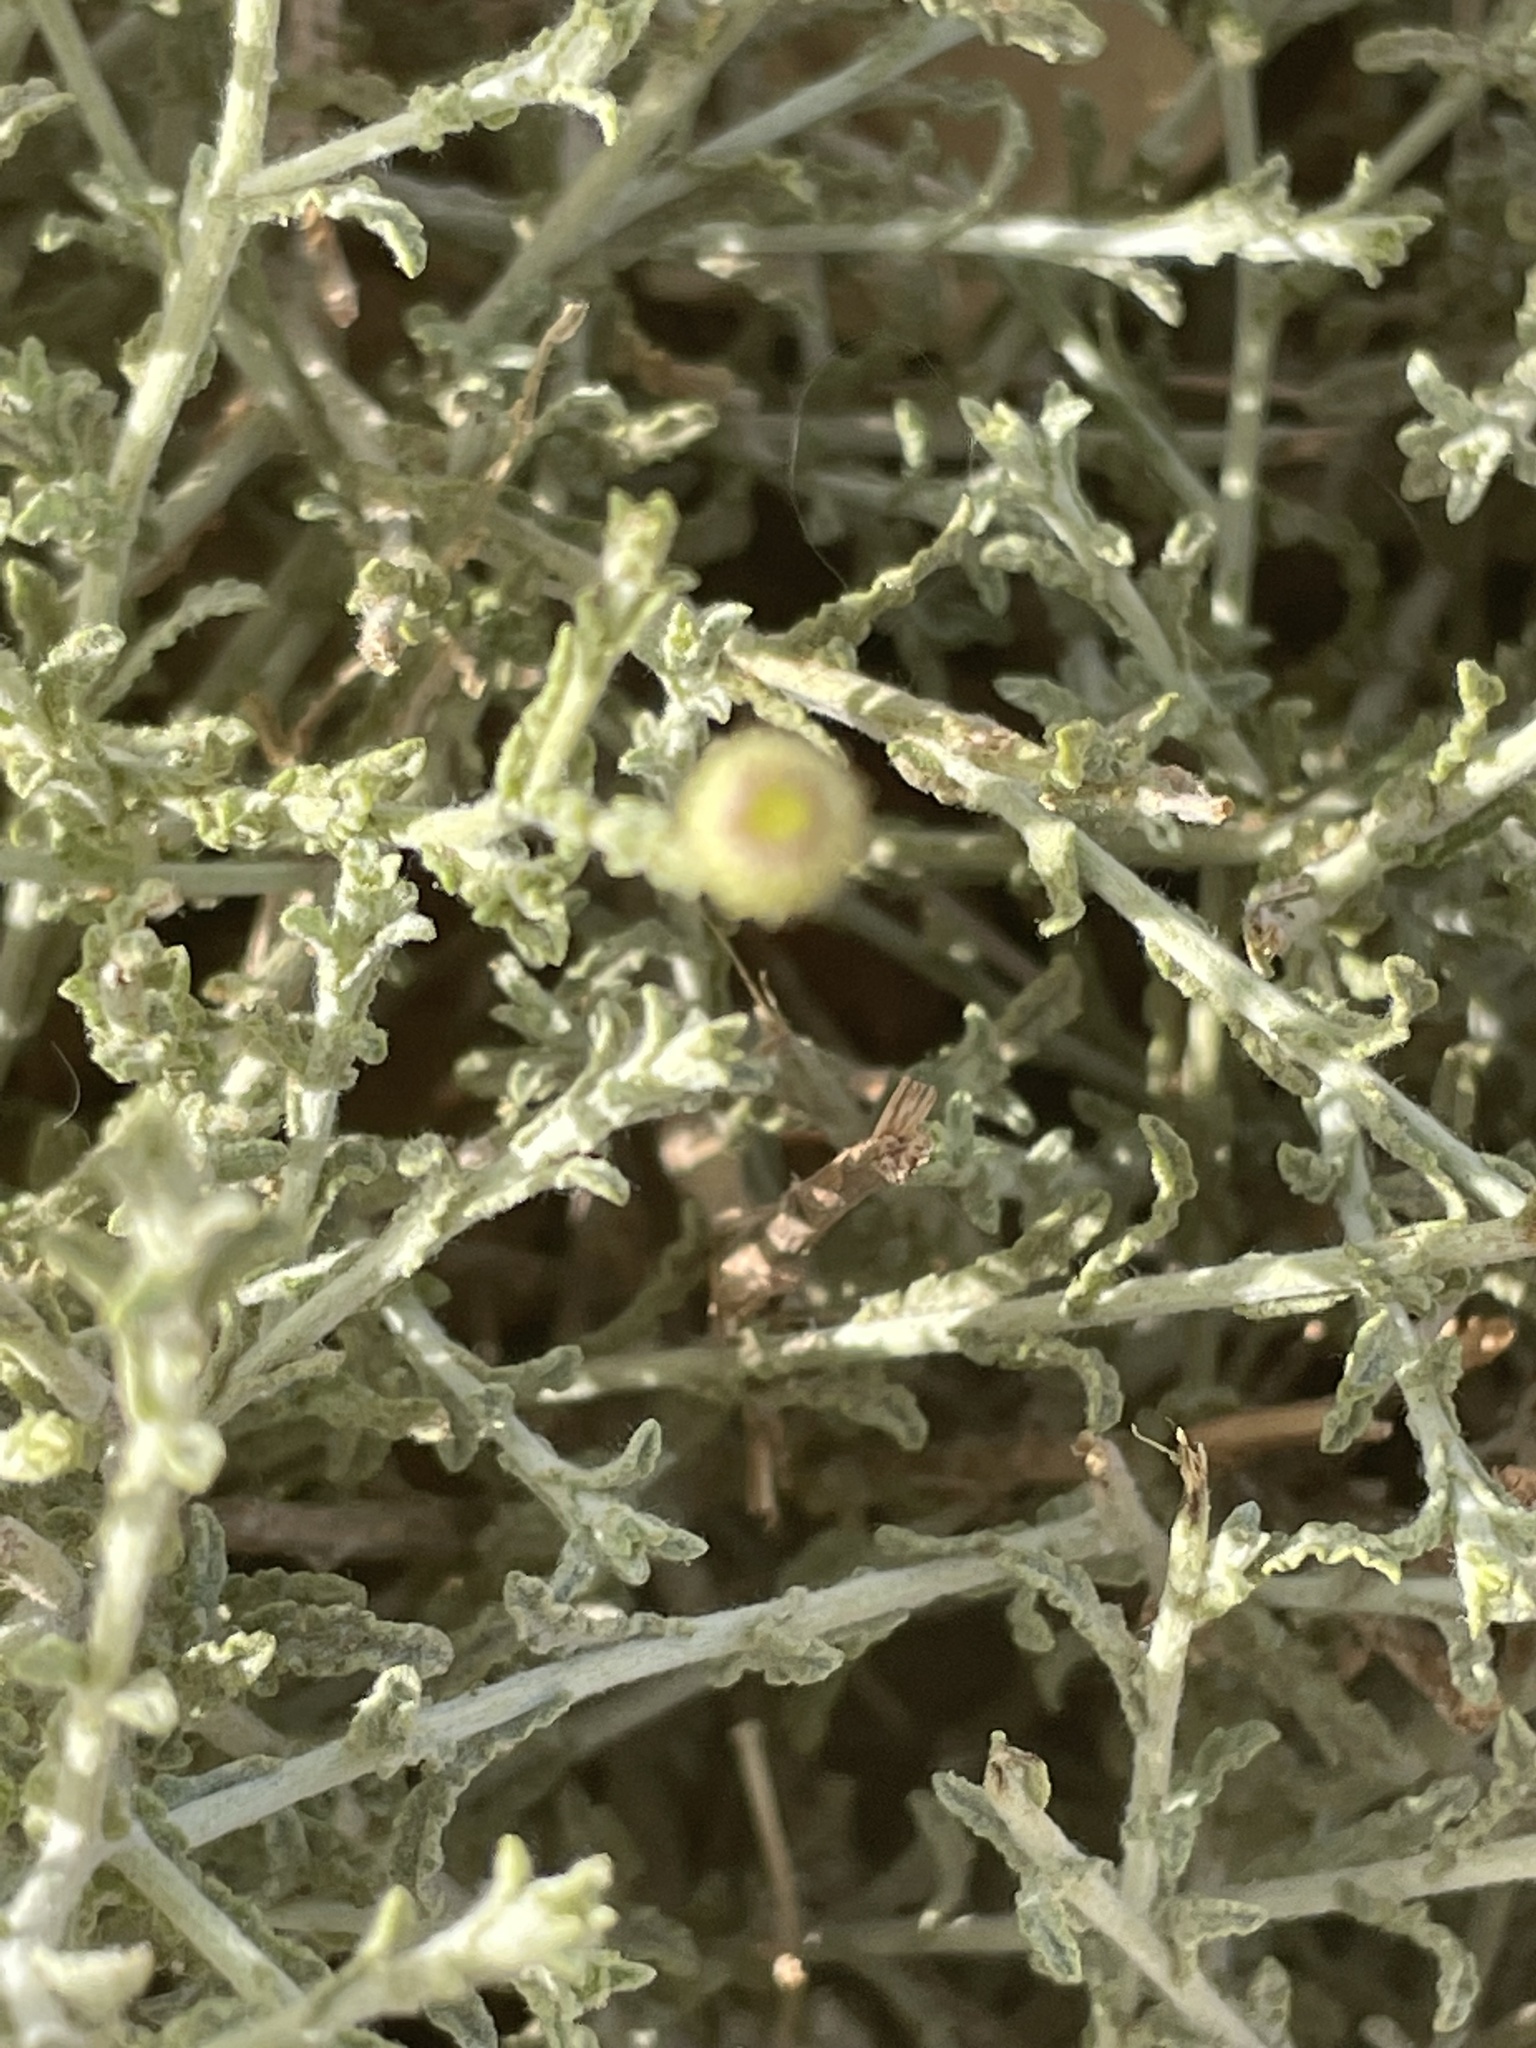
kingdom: Plantae
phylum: Tracheophyta
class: Magnoliopsida
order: Asterales
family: Asteraceae
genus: Pulicaria
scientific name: Pulicaria undulata
